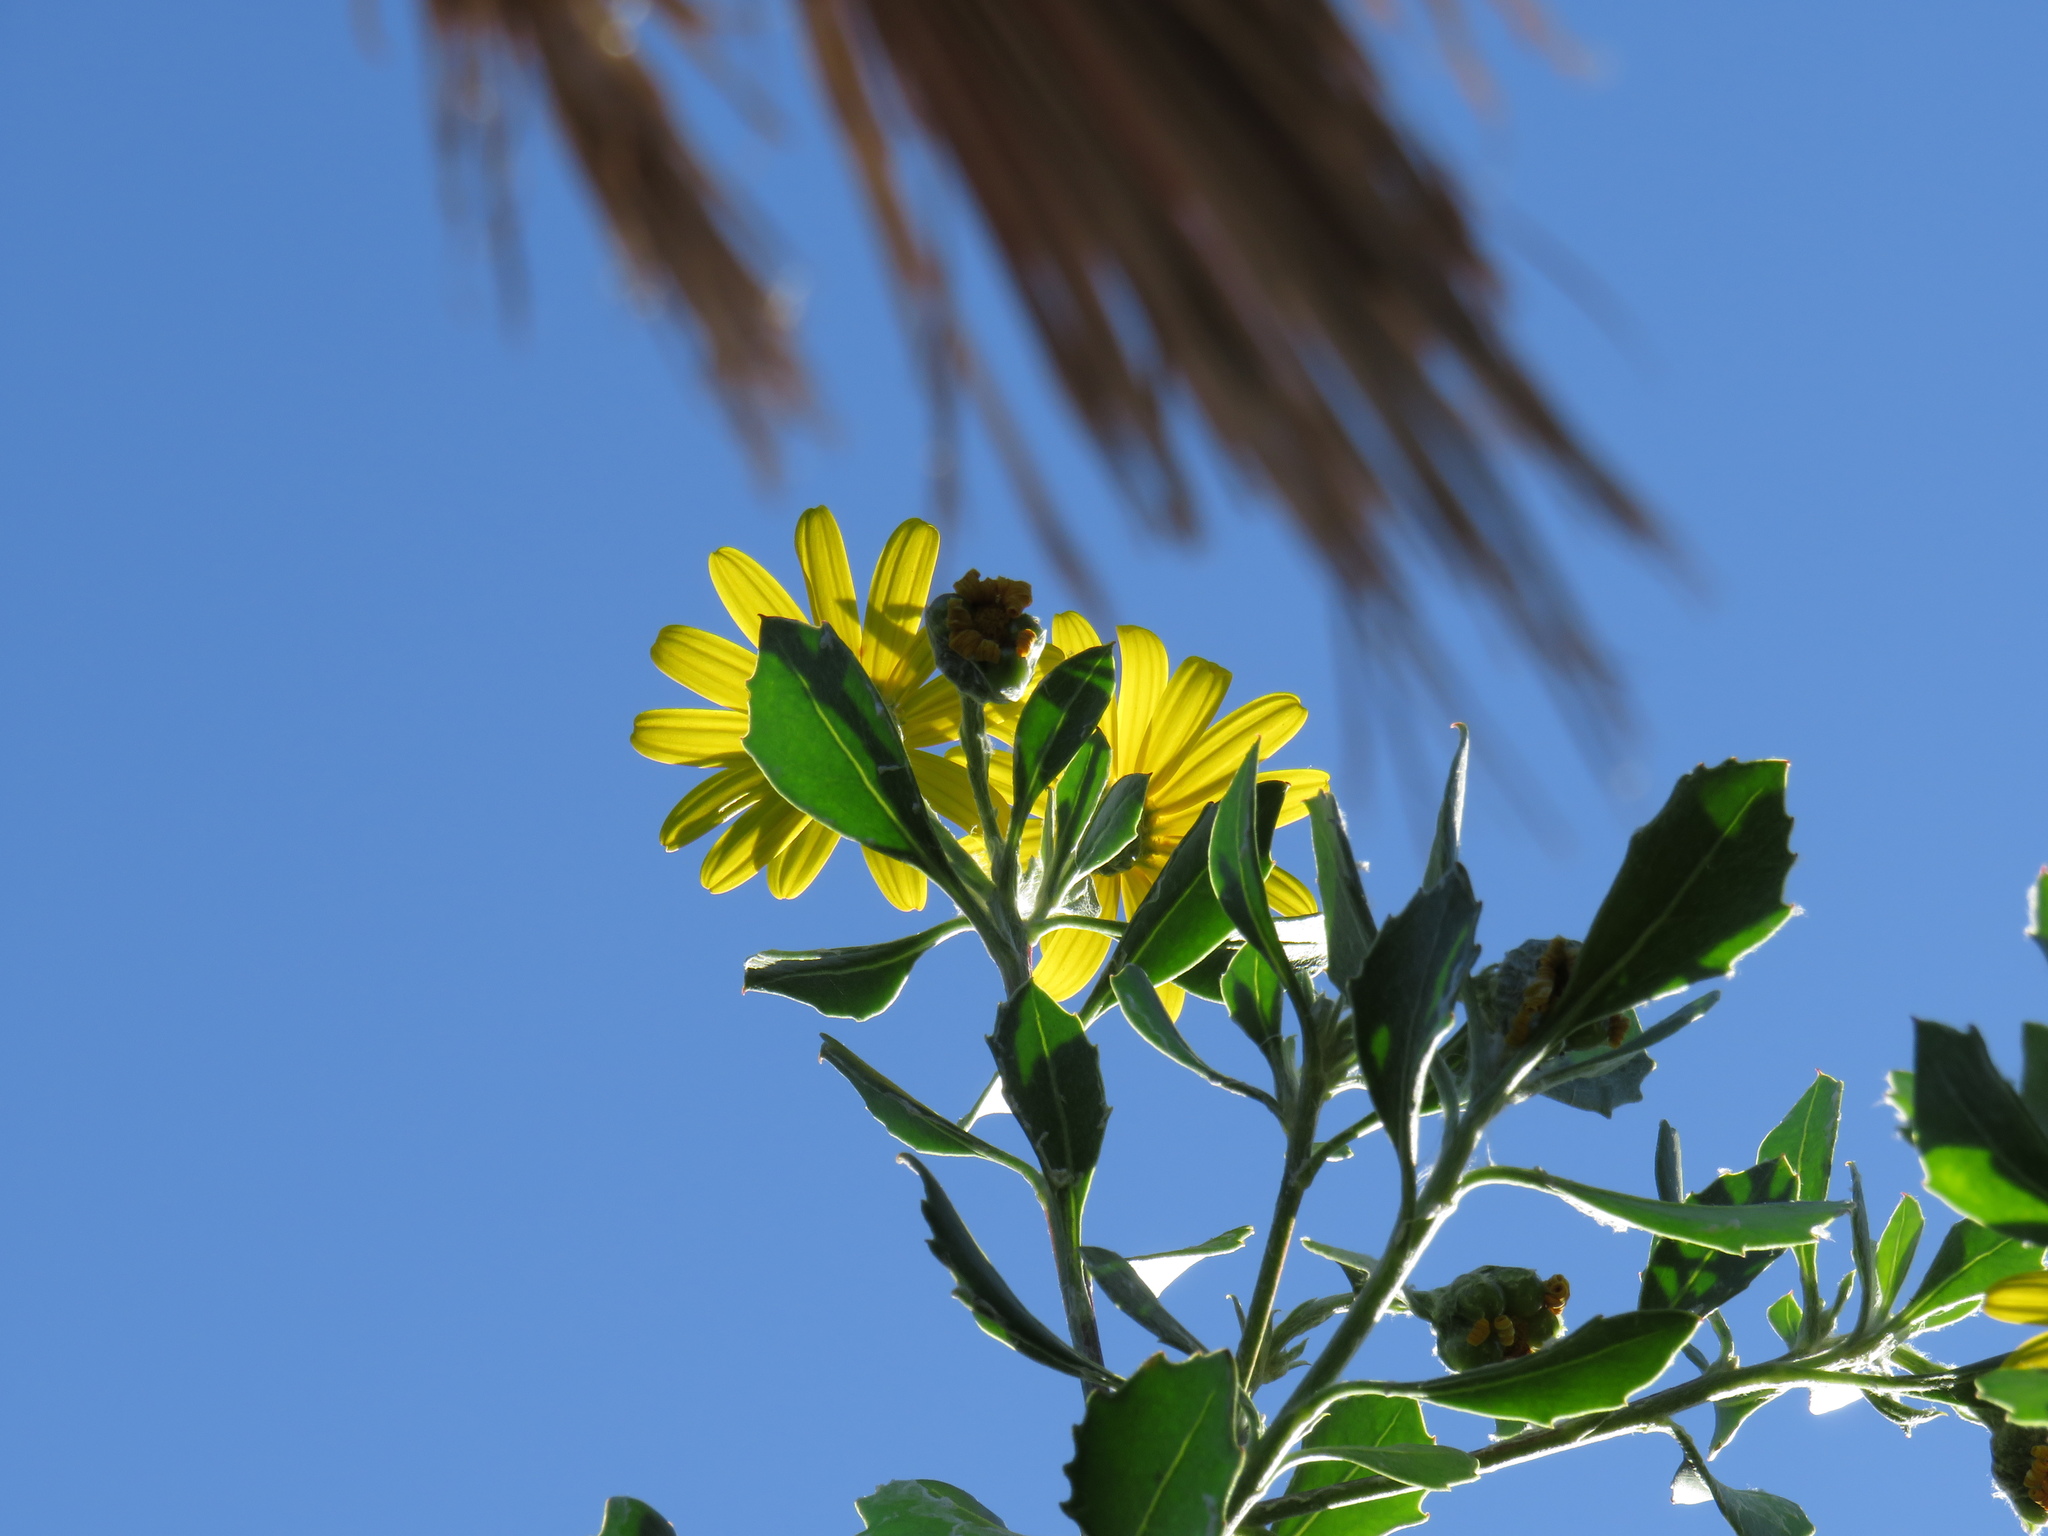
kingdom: Plantae
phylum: Tracheophyta
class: Magnoliopsida
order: Asterales
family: Asteraceae
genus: Osteospermum
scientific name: Osteospermum moniliferum
